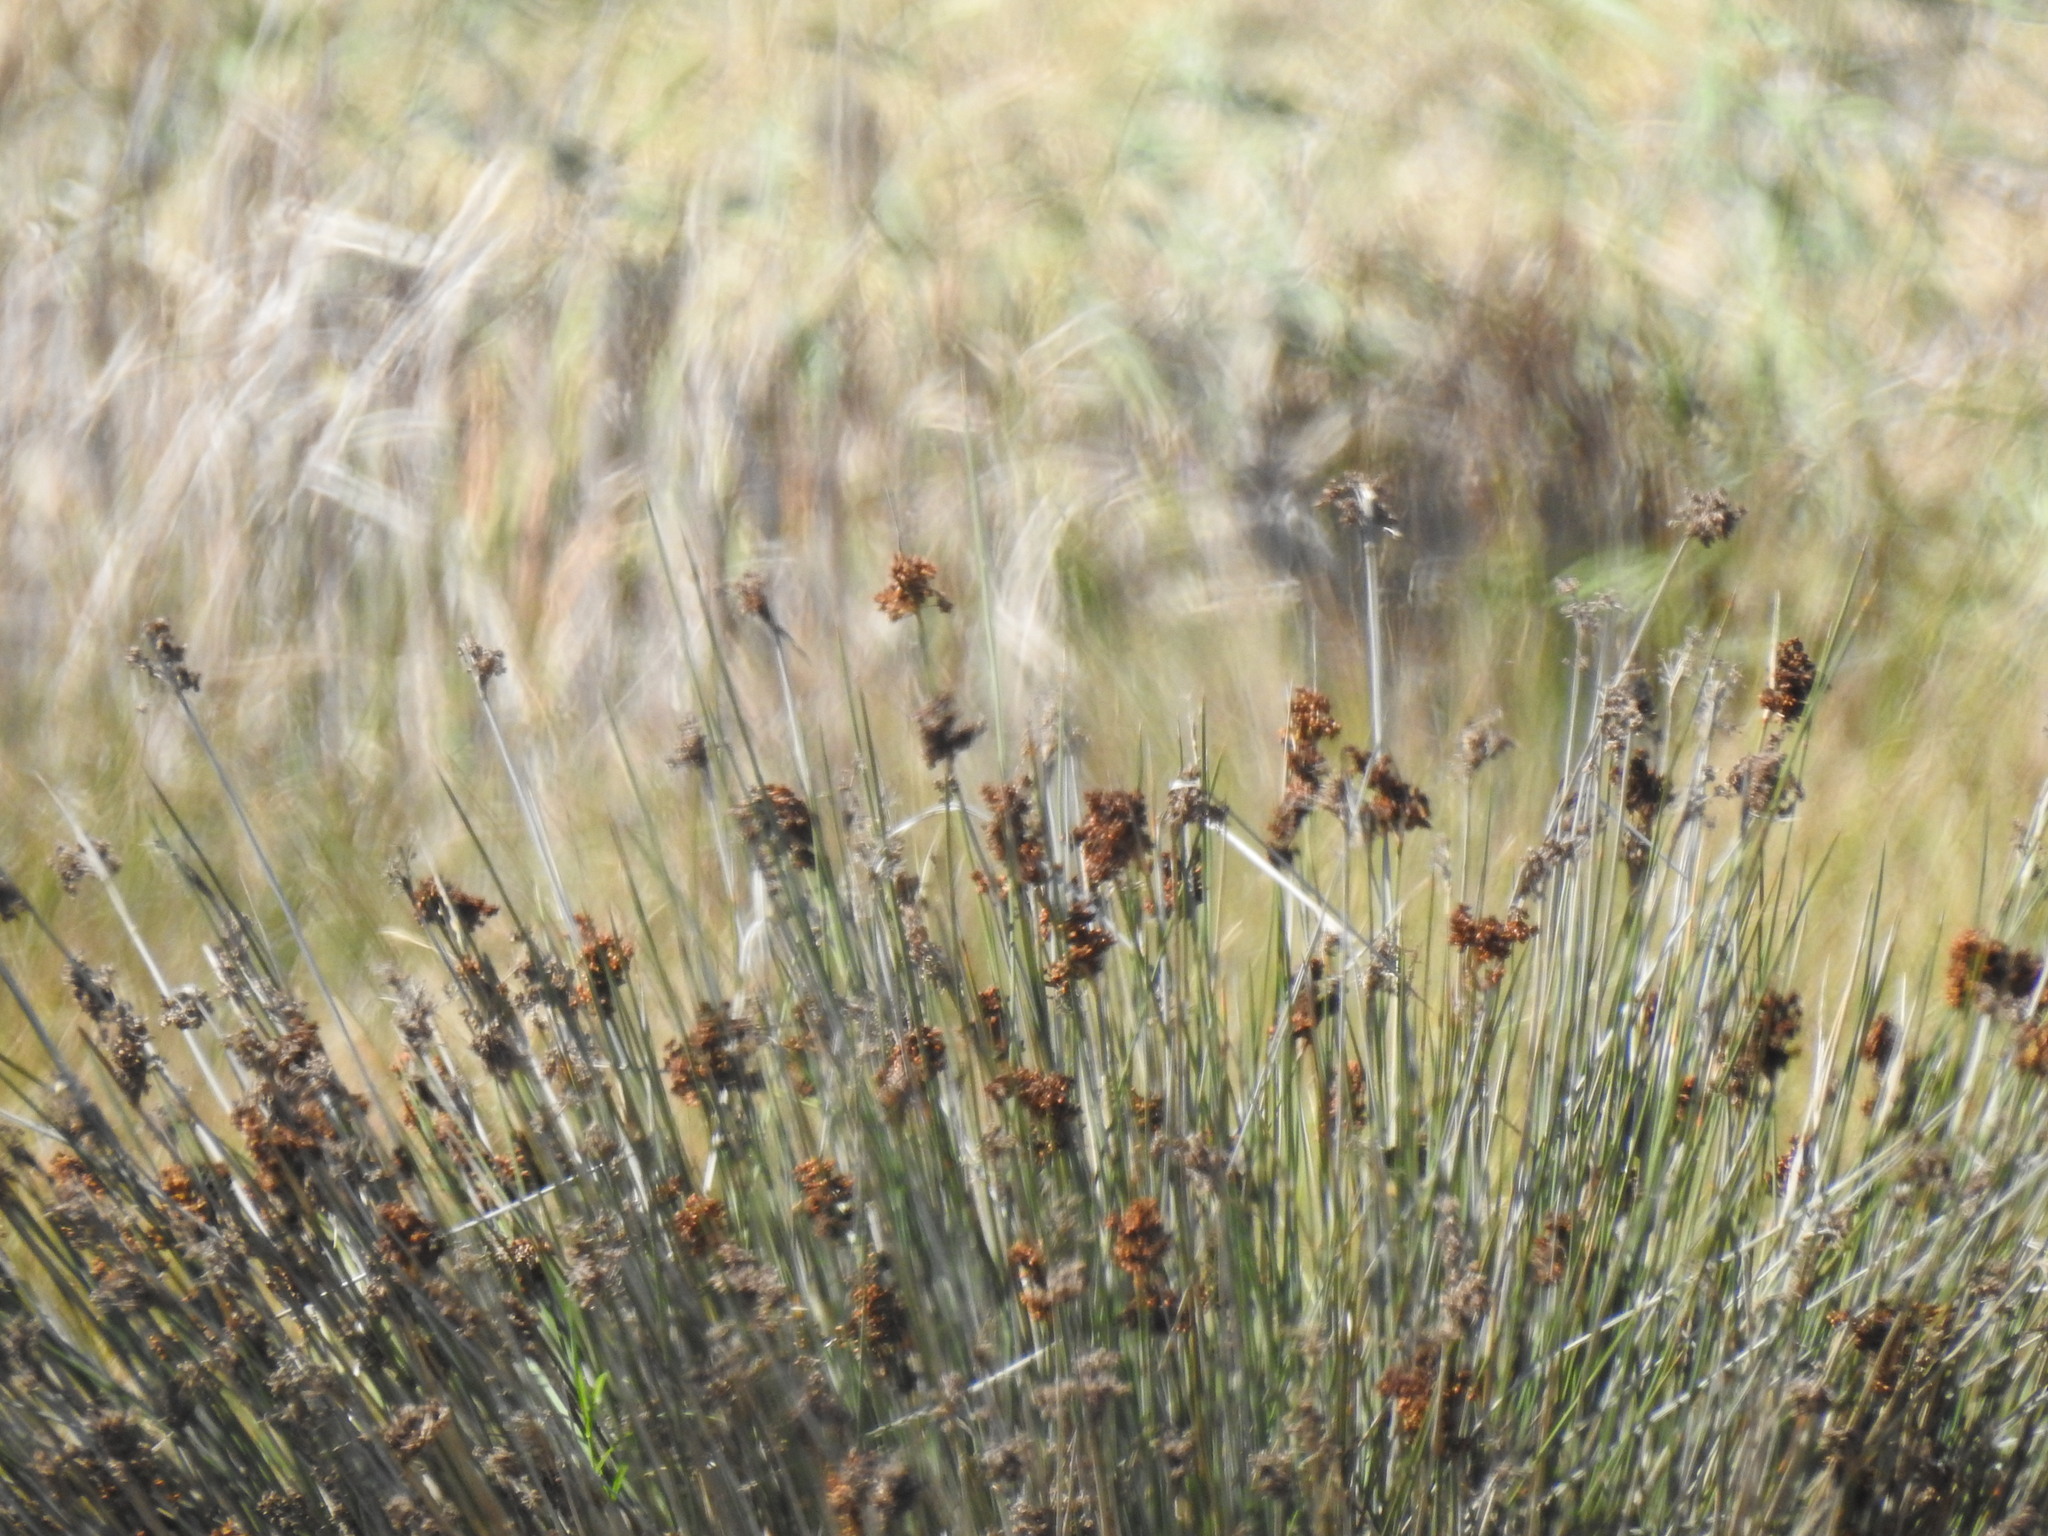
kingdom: Plantae
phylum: Tracheophyta
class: Liliopsida
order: Poales
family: Juncaceae
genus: Juncus
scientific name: Juncus acutus
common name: Sharp rush
